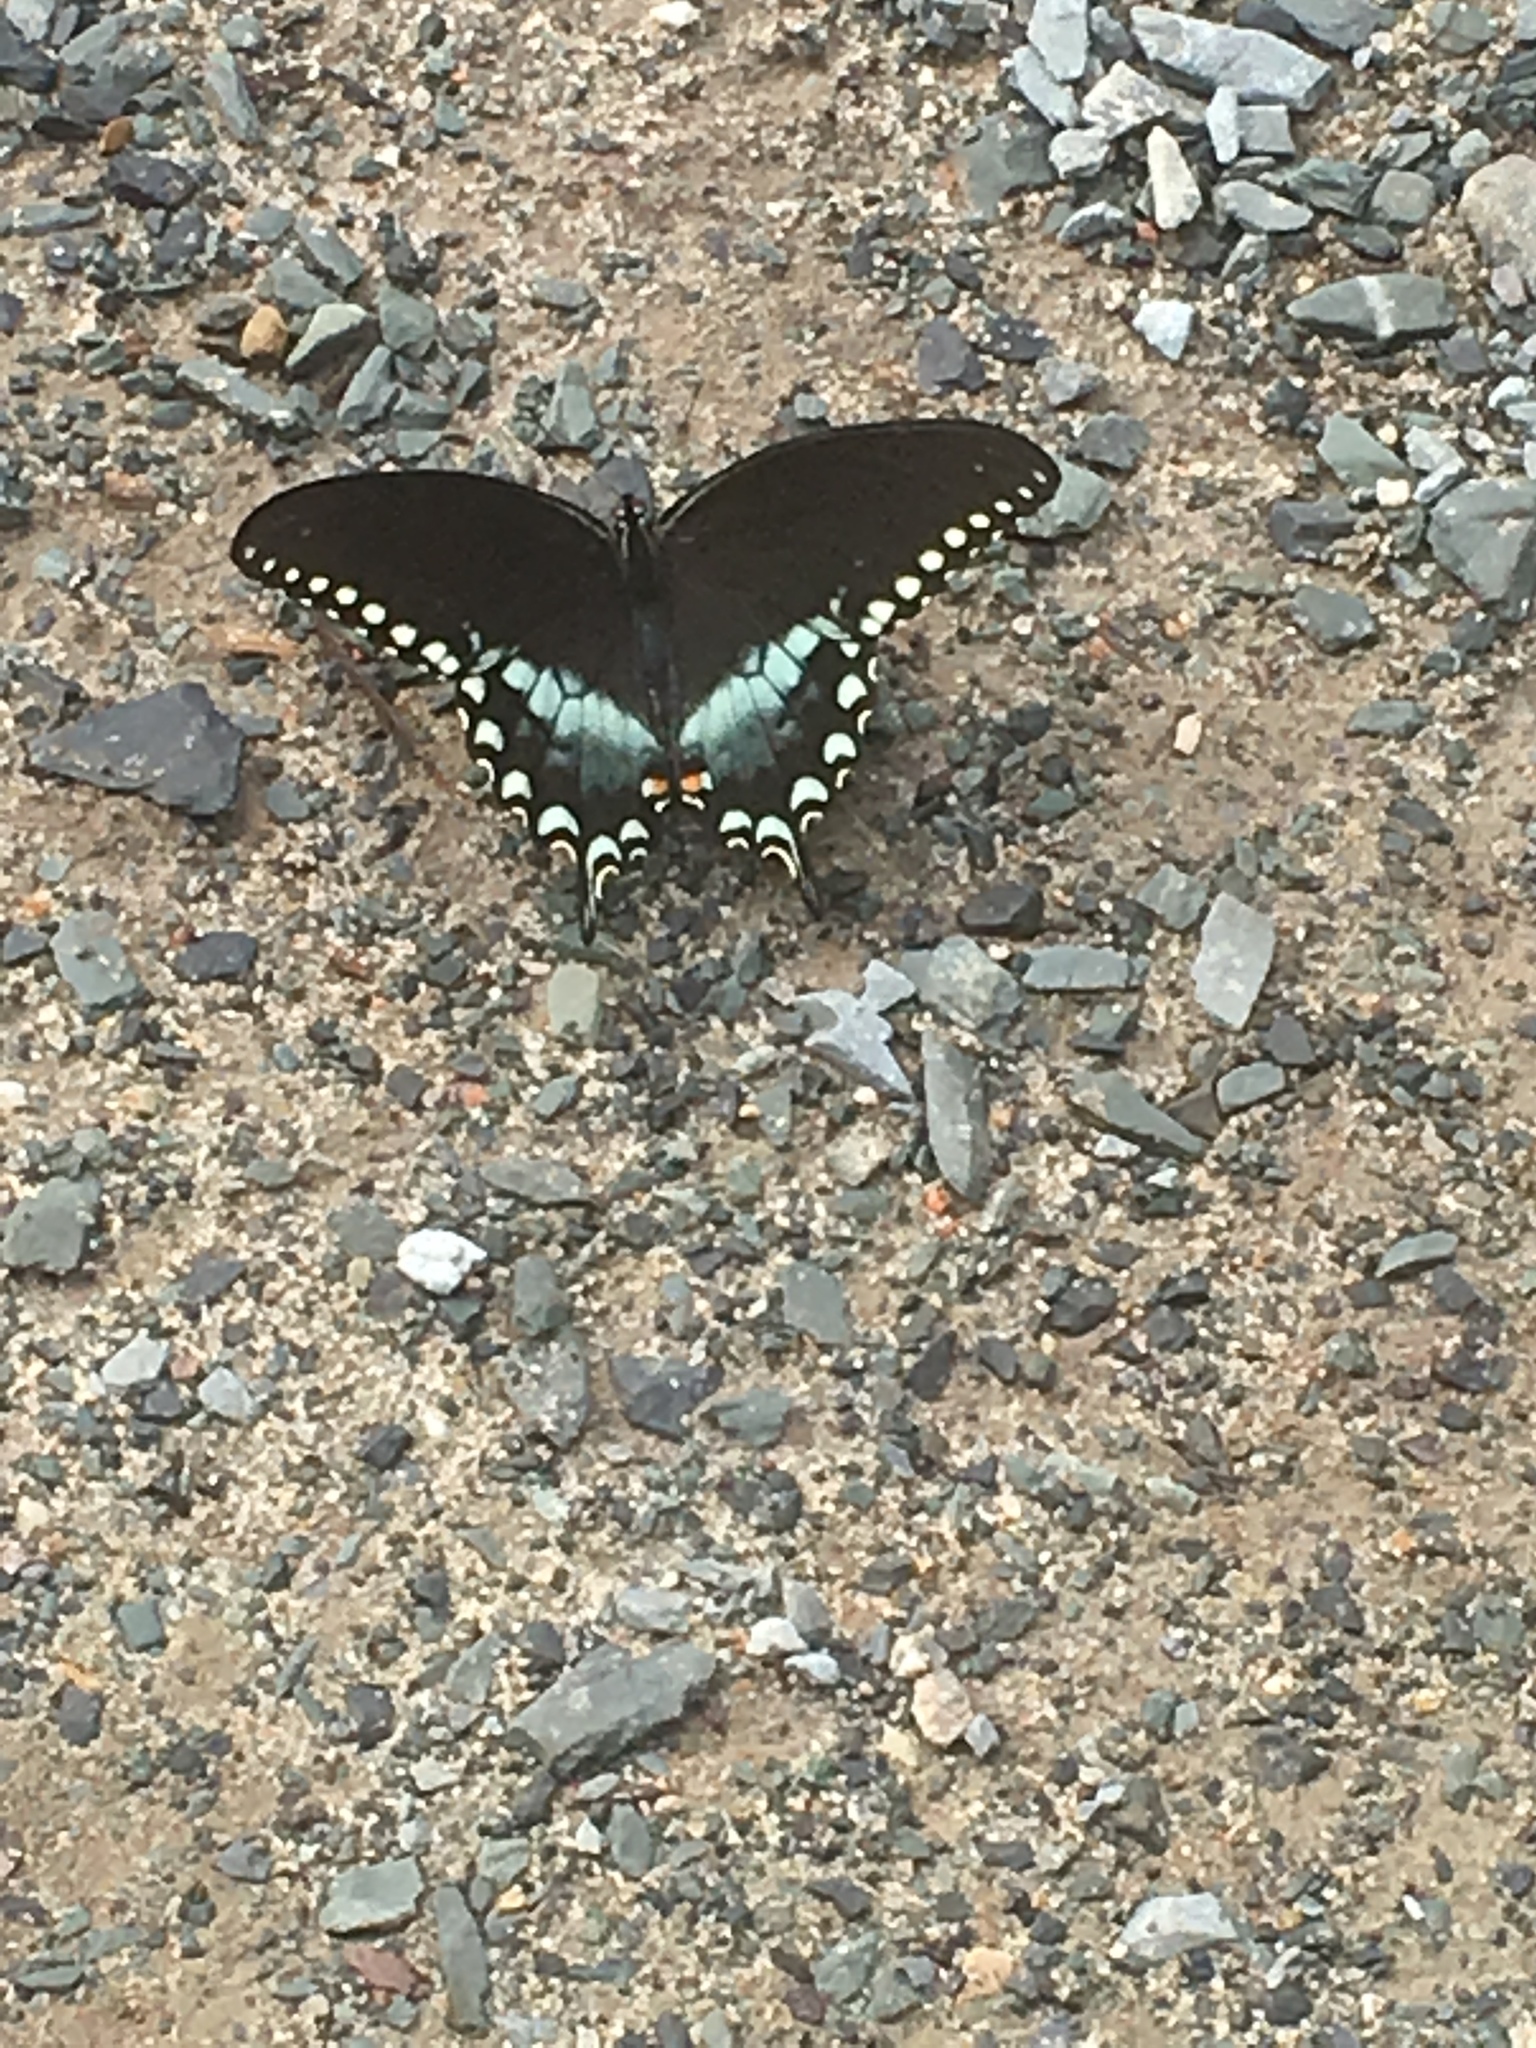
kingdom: Animalia
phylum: Arthropoda
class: Insecta
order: Lepidoptera
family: Papilionidae
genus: Papilio
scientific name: Papilio troilus
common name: Spicebush swallowtail
